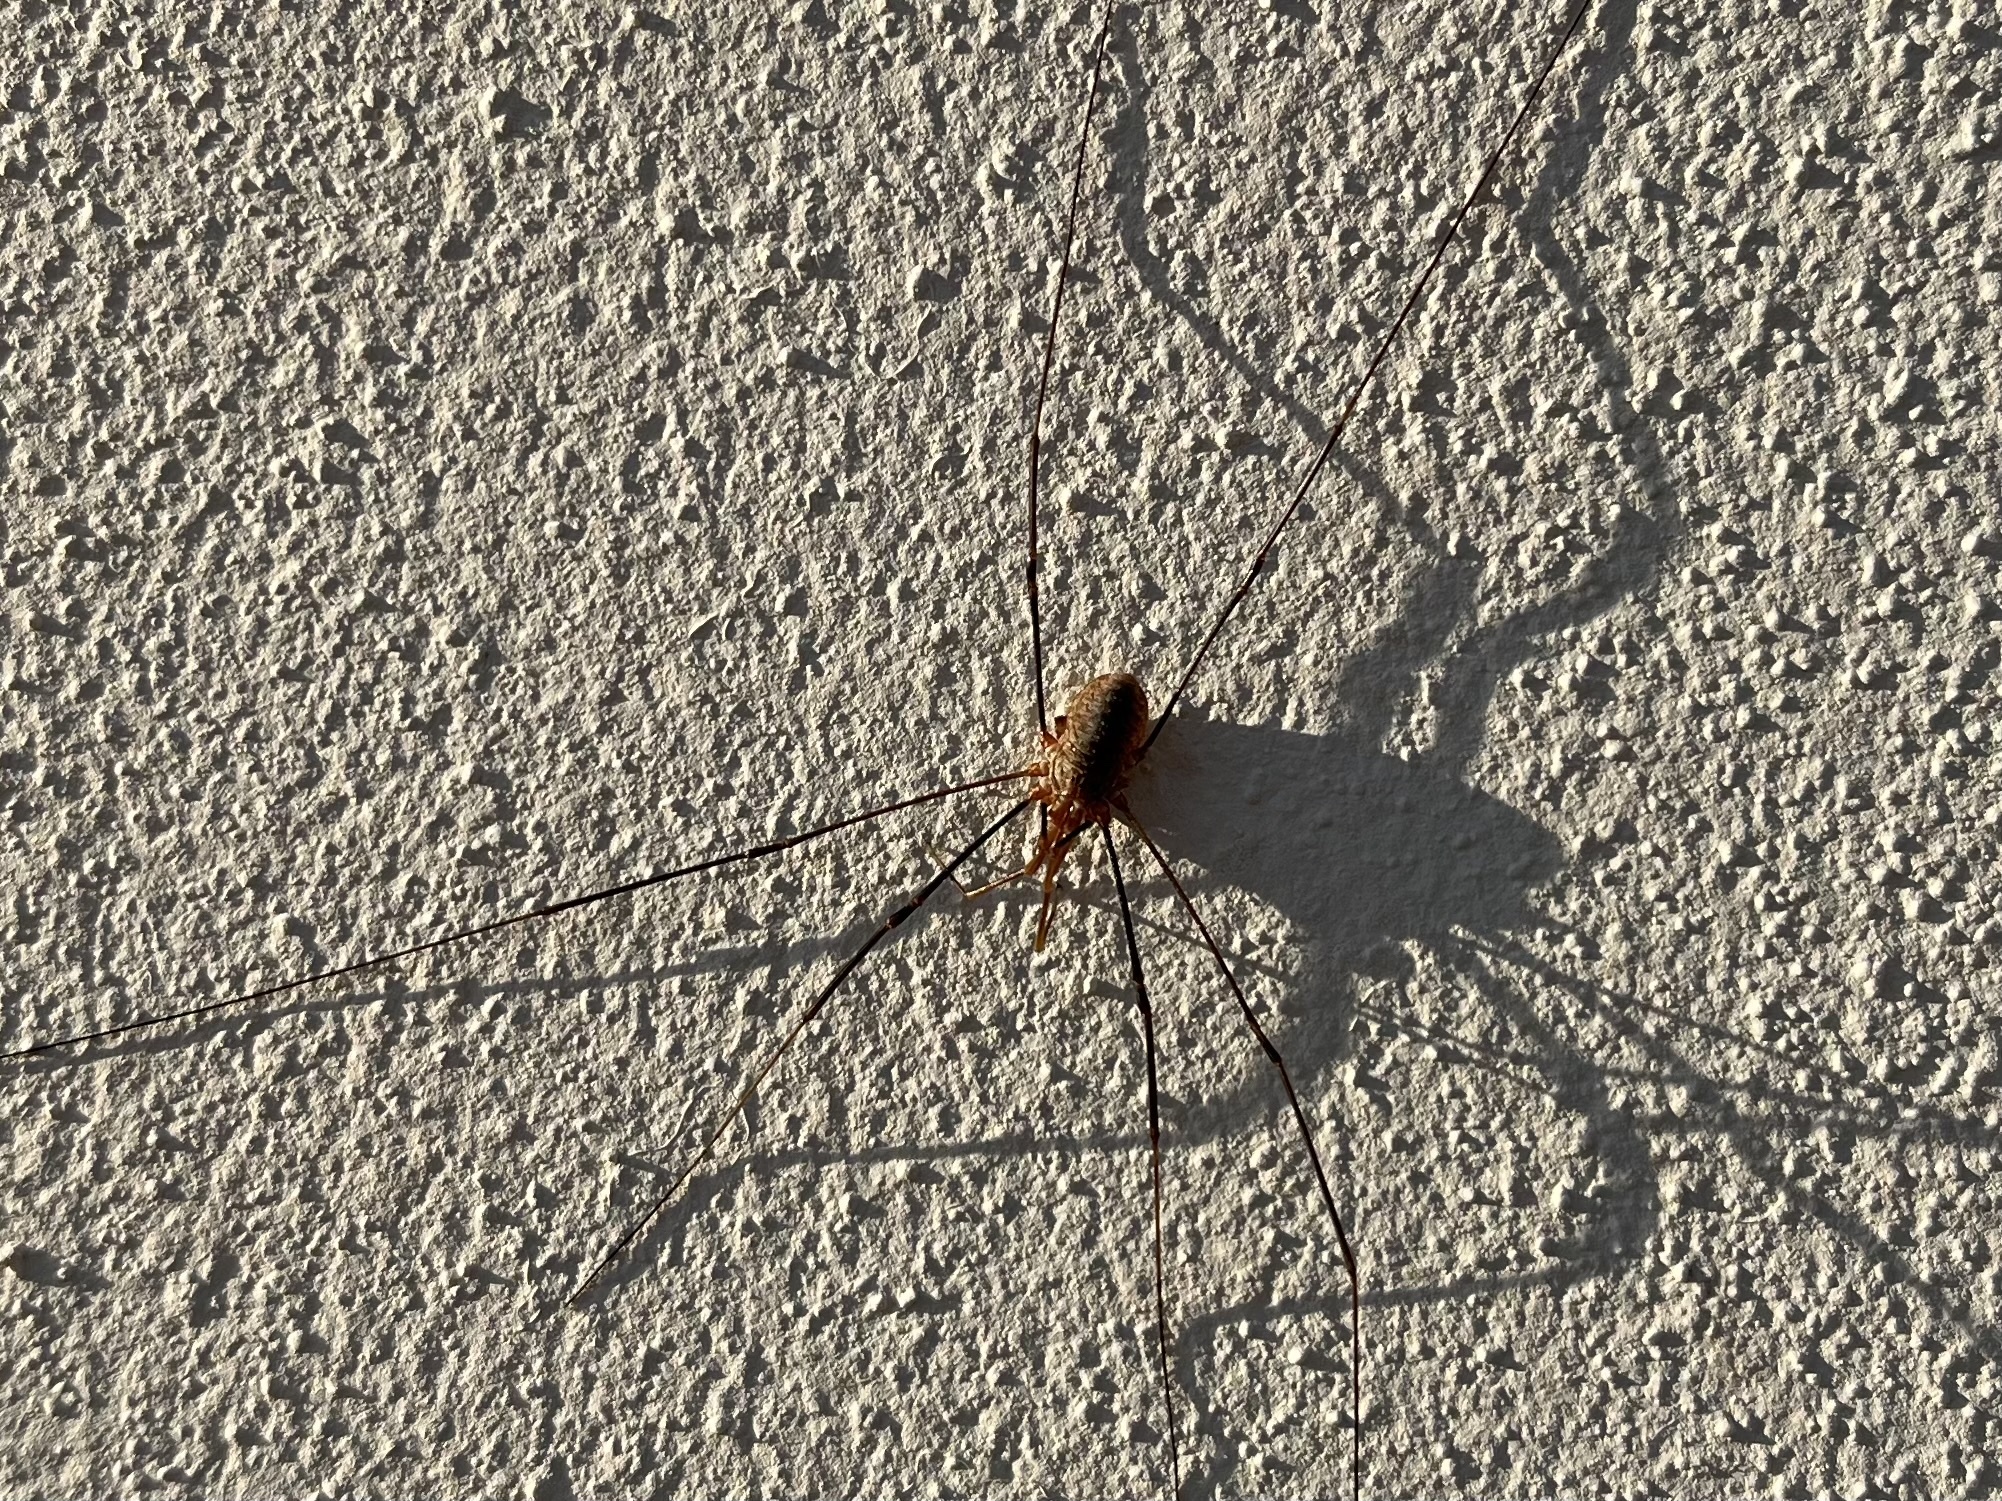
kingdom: Animalia
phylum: Arthropoda
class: Arachnida
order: Opiliones
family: Phalangiidae
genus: Phalangium
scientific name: Phalangium opilio
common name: Daddy longleg
